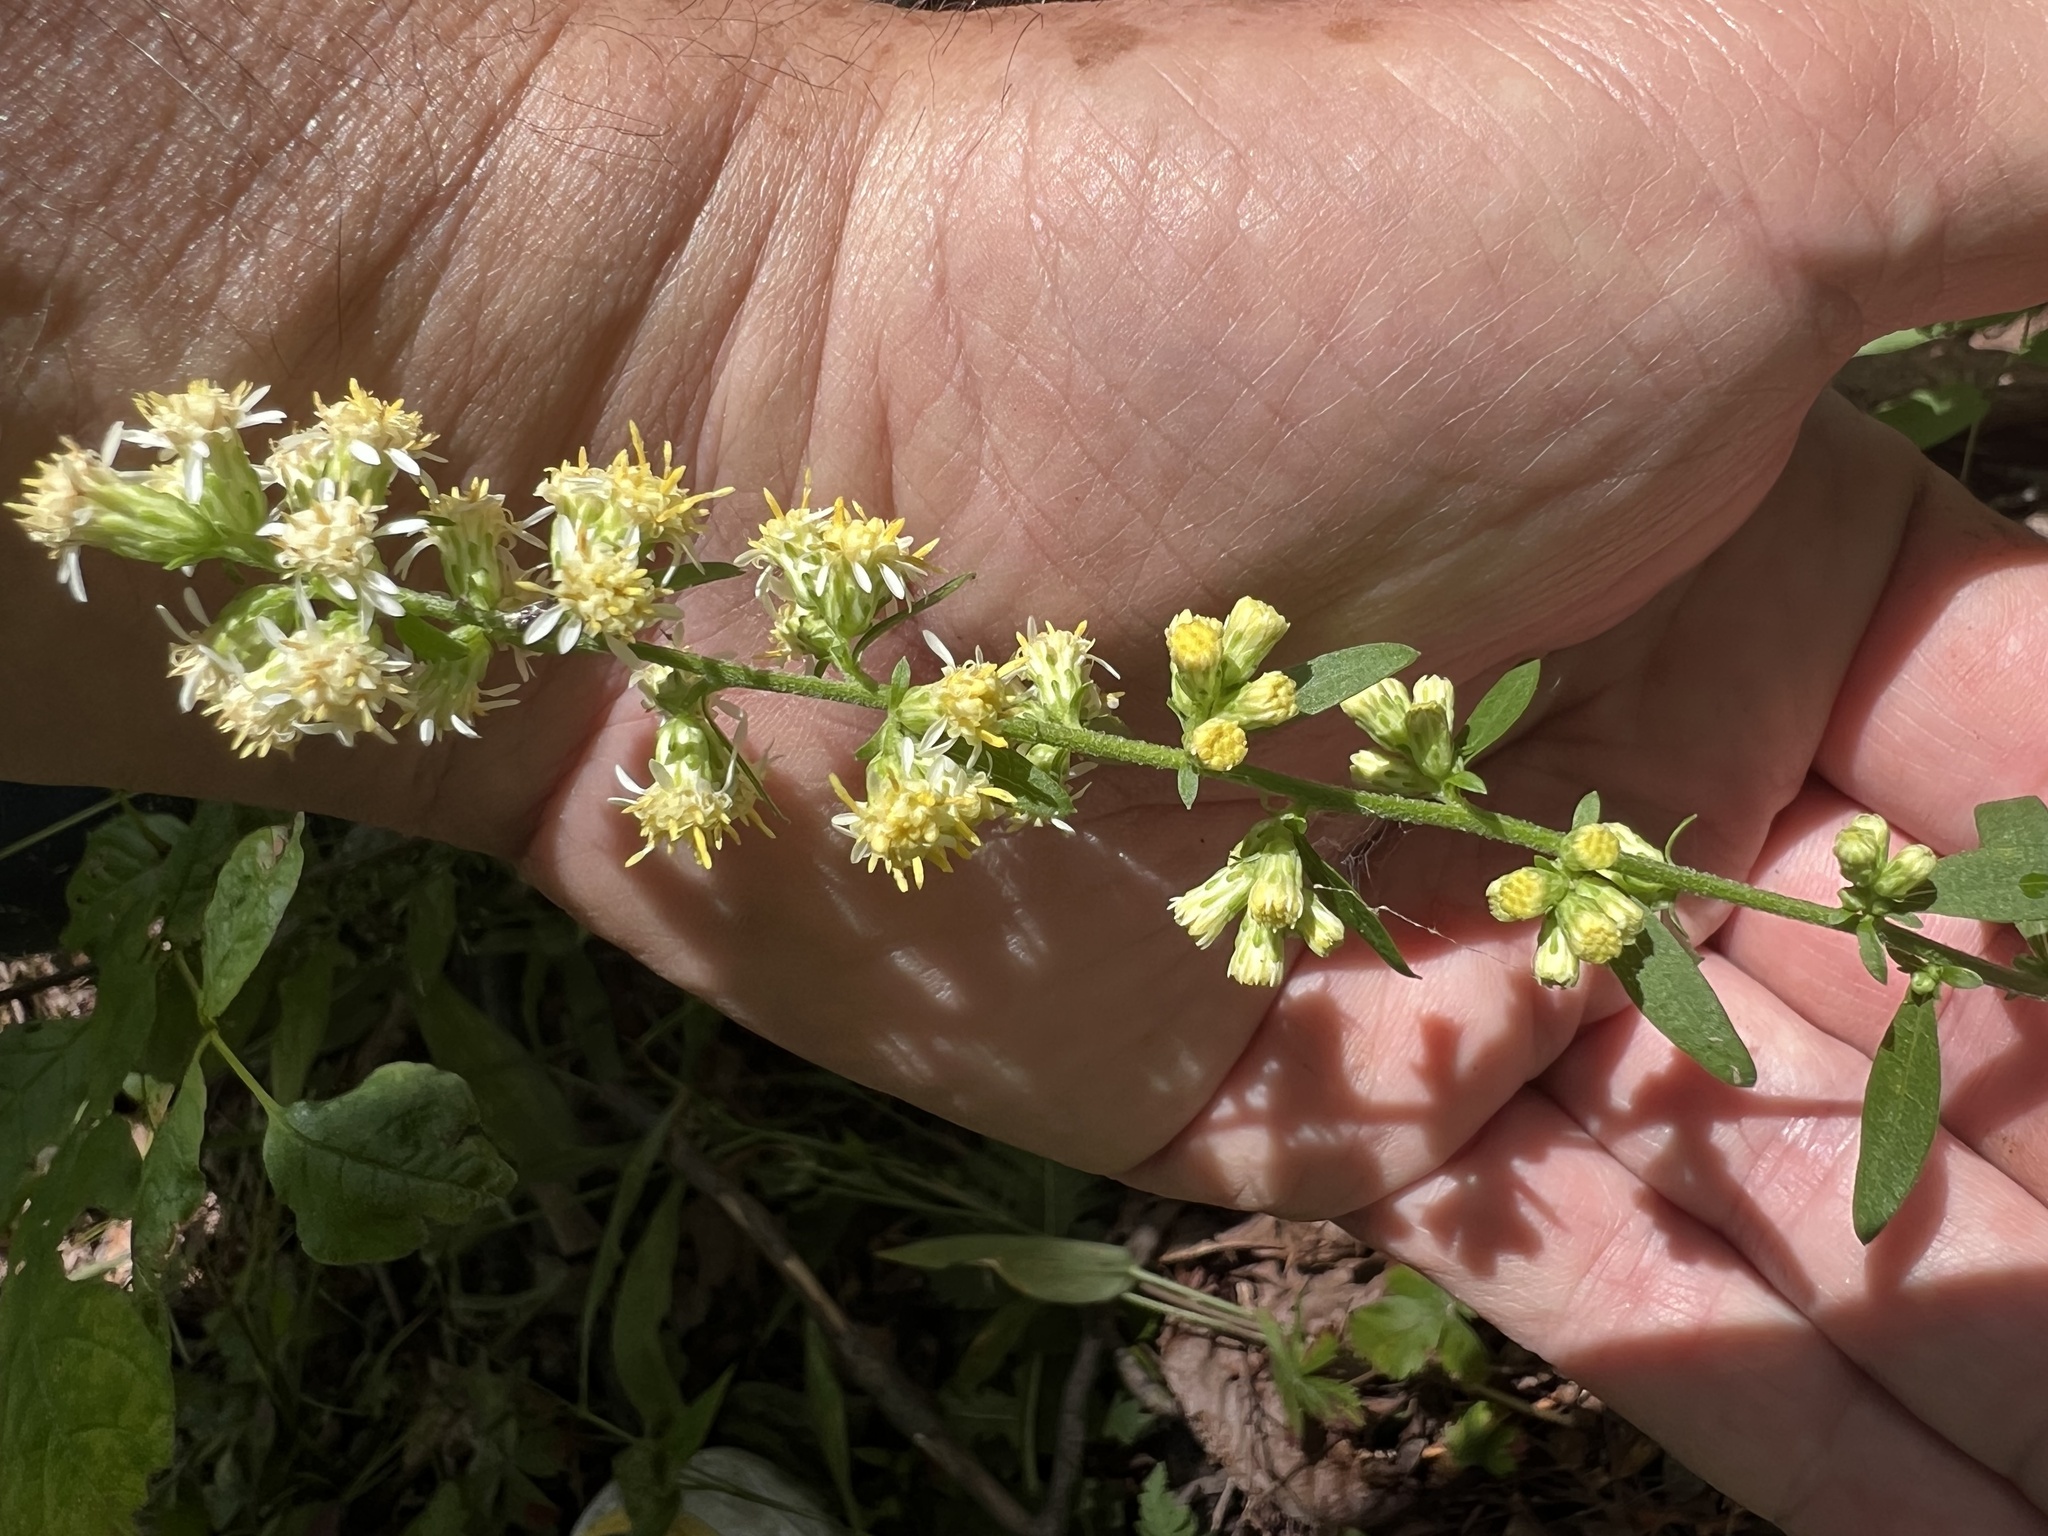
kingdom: Plantae
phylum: Tracheophyta
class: Magnoliopsida
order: Asterales
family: Asteraceae
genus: Solidago
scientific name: Solidago bicolor
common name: Silverrod
